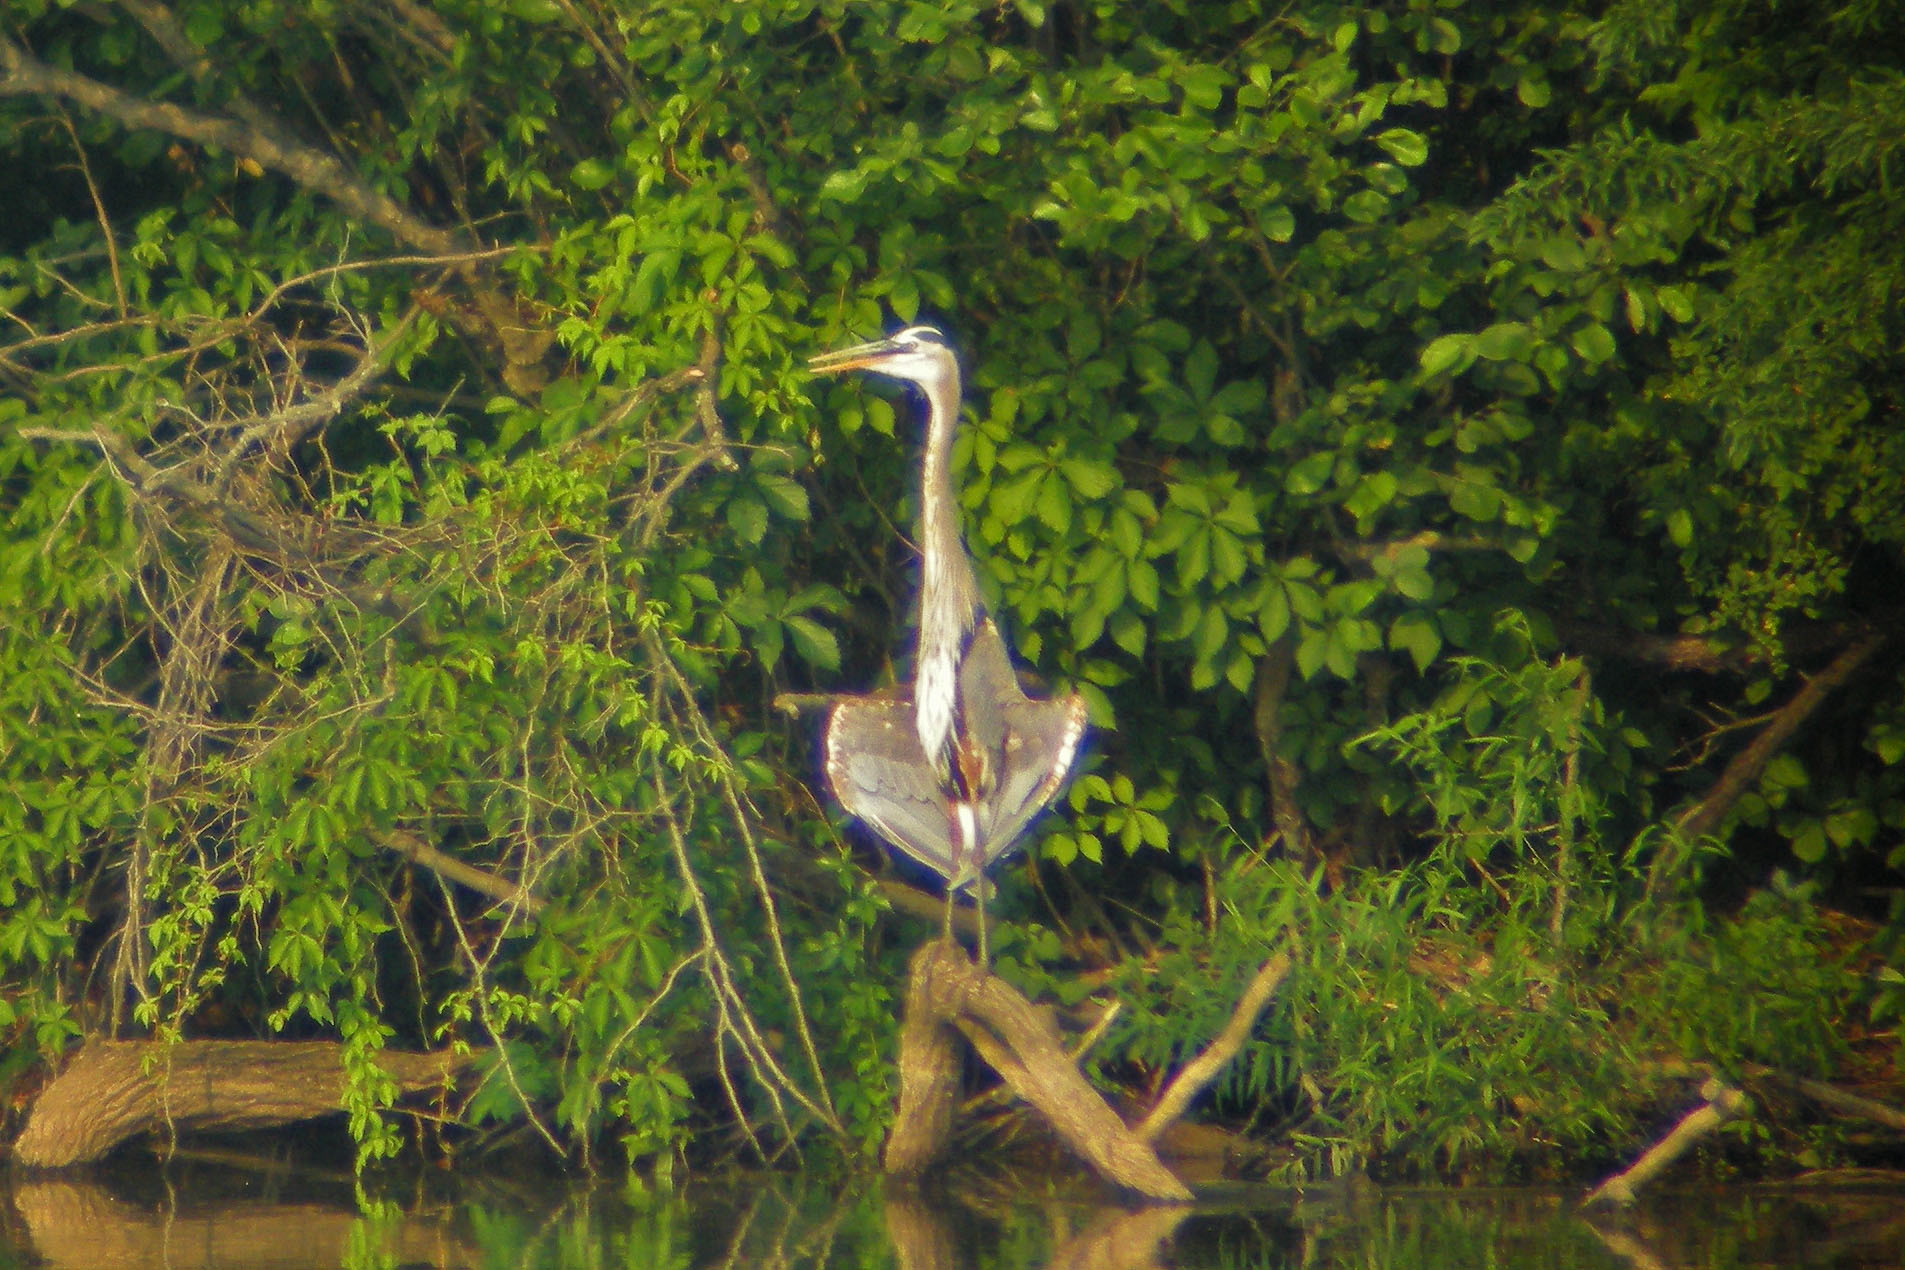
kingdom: Animalia
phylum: Chordata
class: Aves
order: Pelecaniformes
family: Ardeidae
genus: Ardea
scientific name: Ardea herodias
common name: Great blue heron
